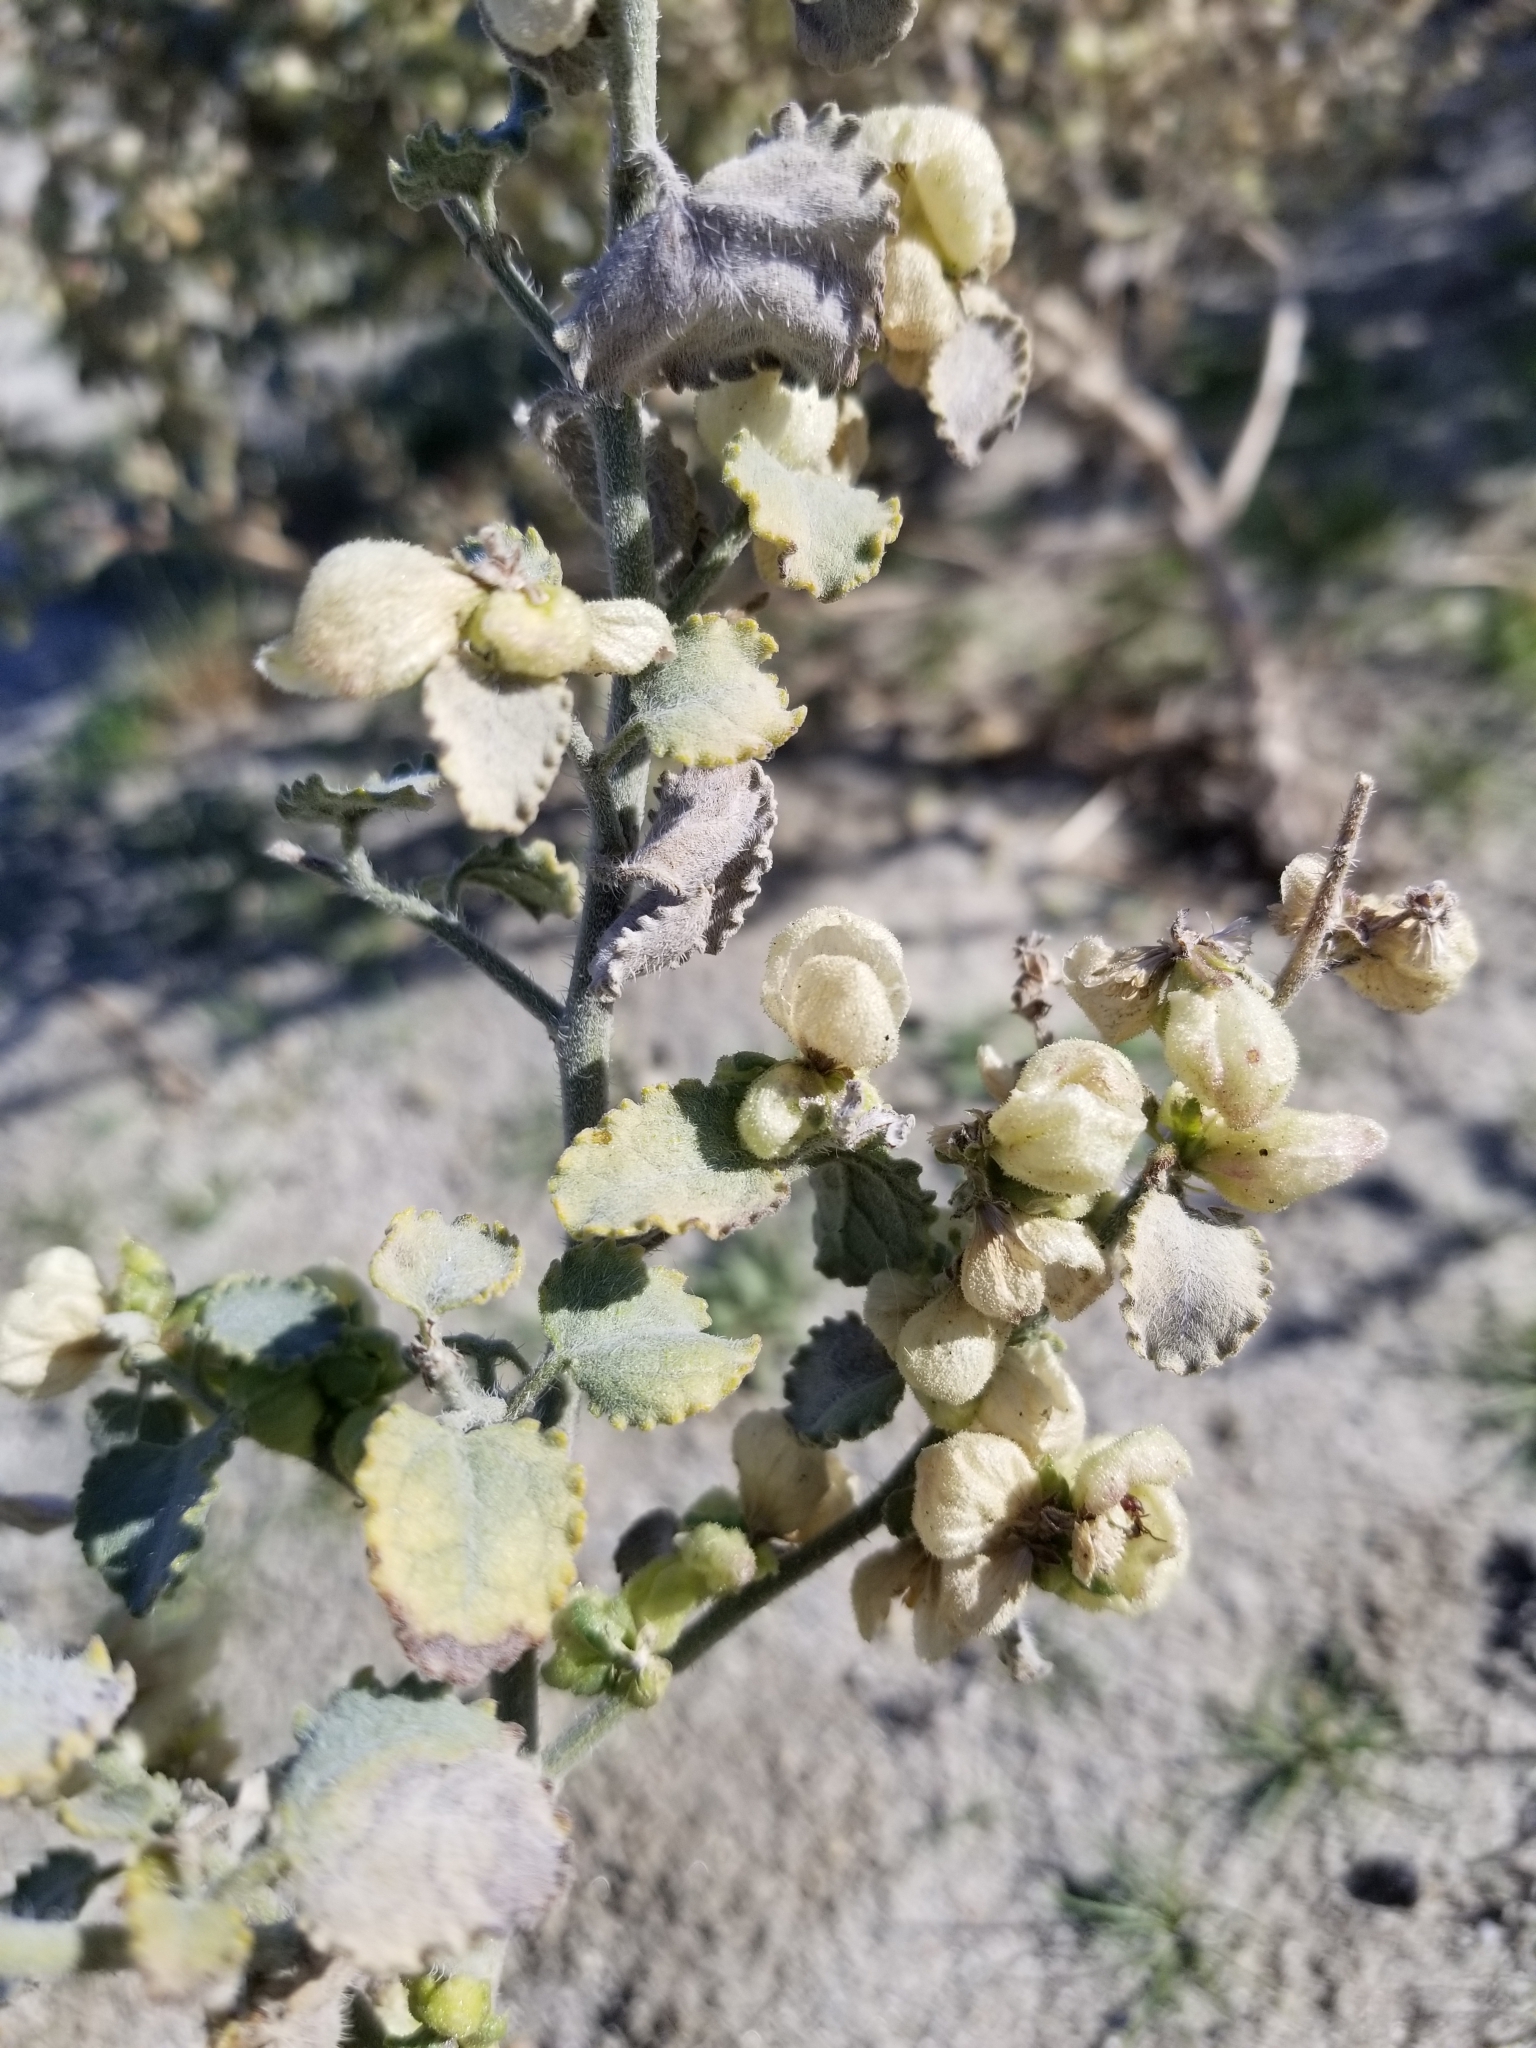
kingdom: Plantae
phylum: Tracheophyta
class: Magnoliopsida
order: Asterales
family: Asteraceae
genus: Dicoria
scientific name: Dicoria canescens
